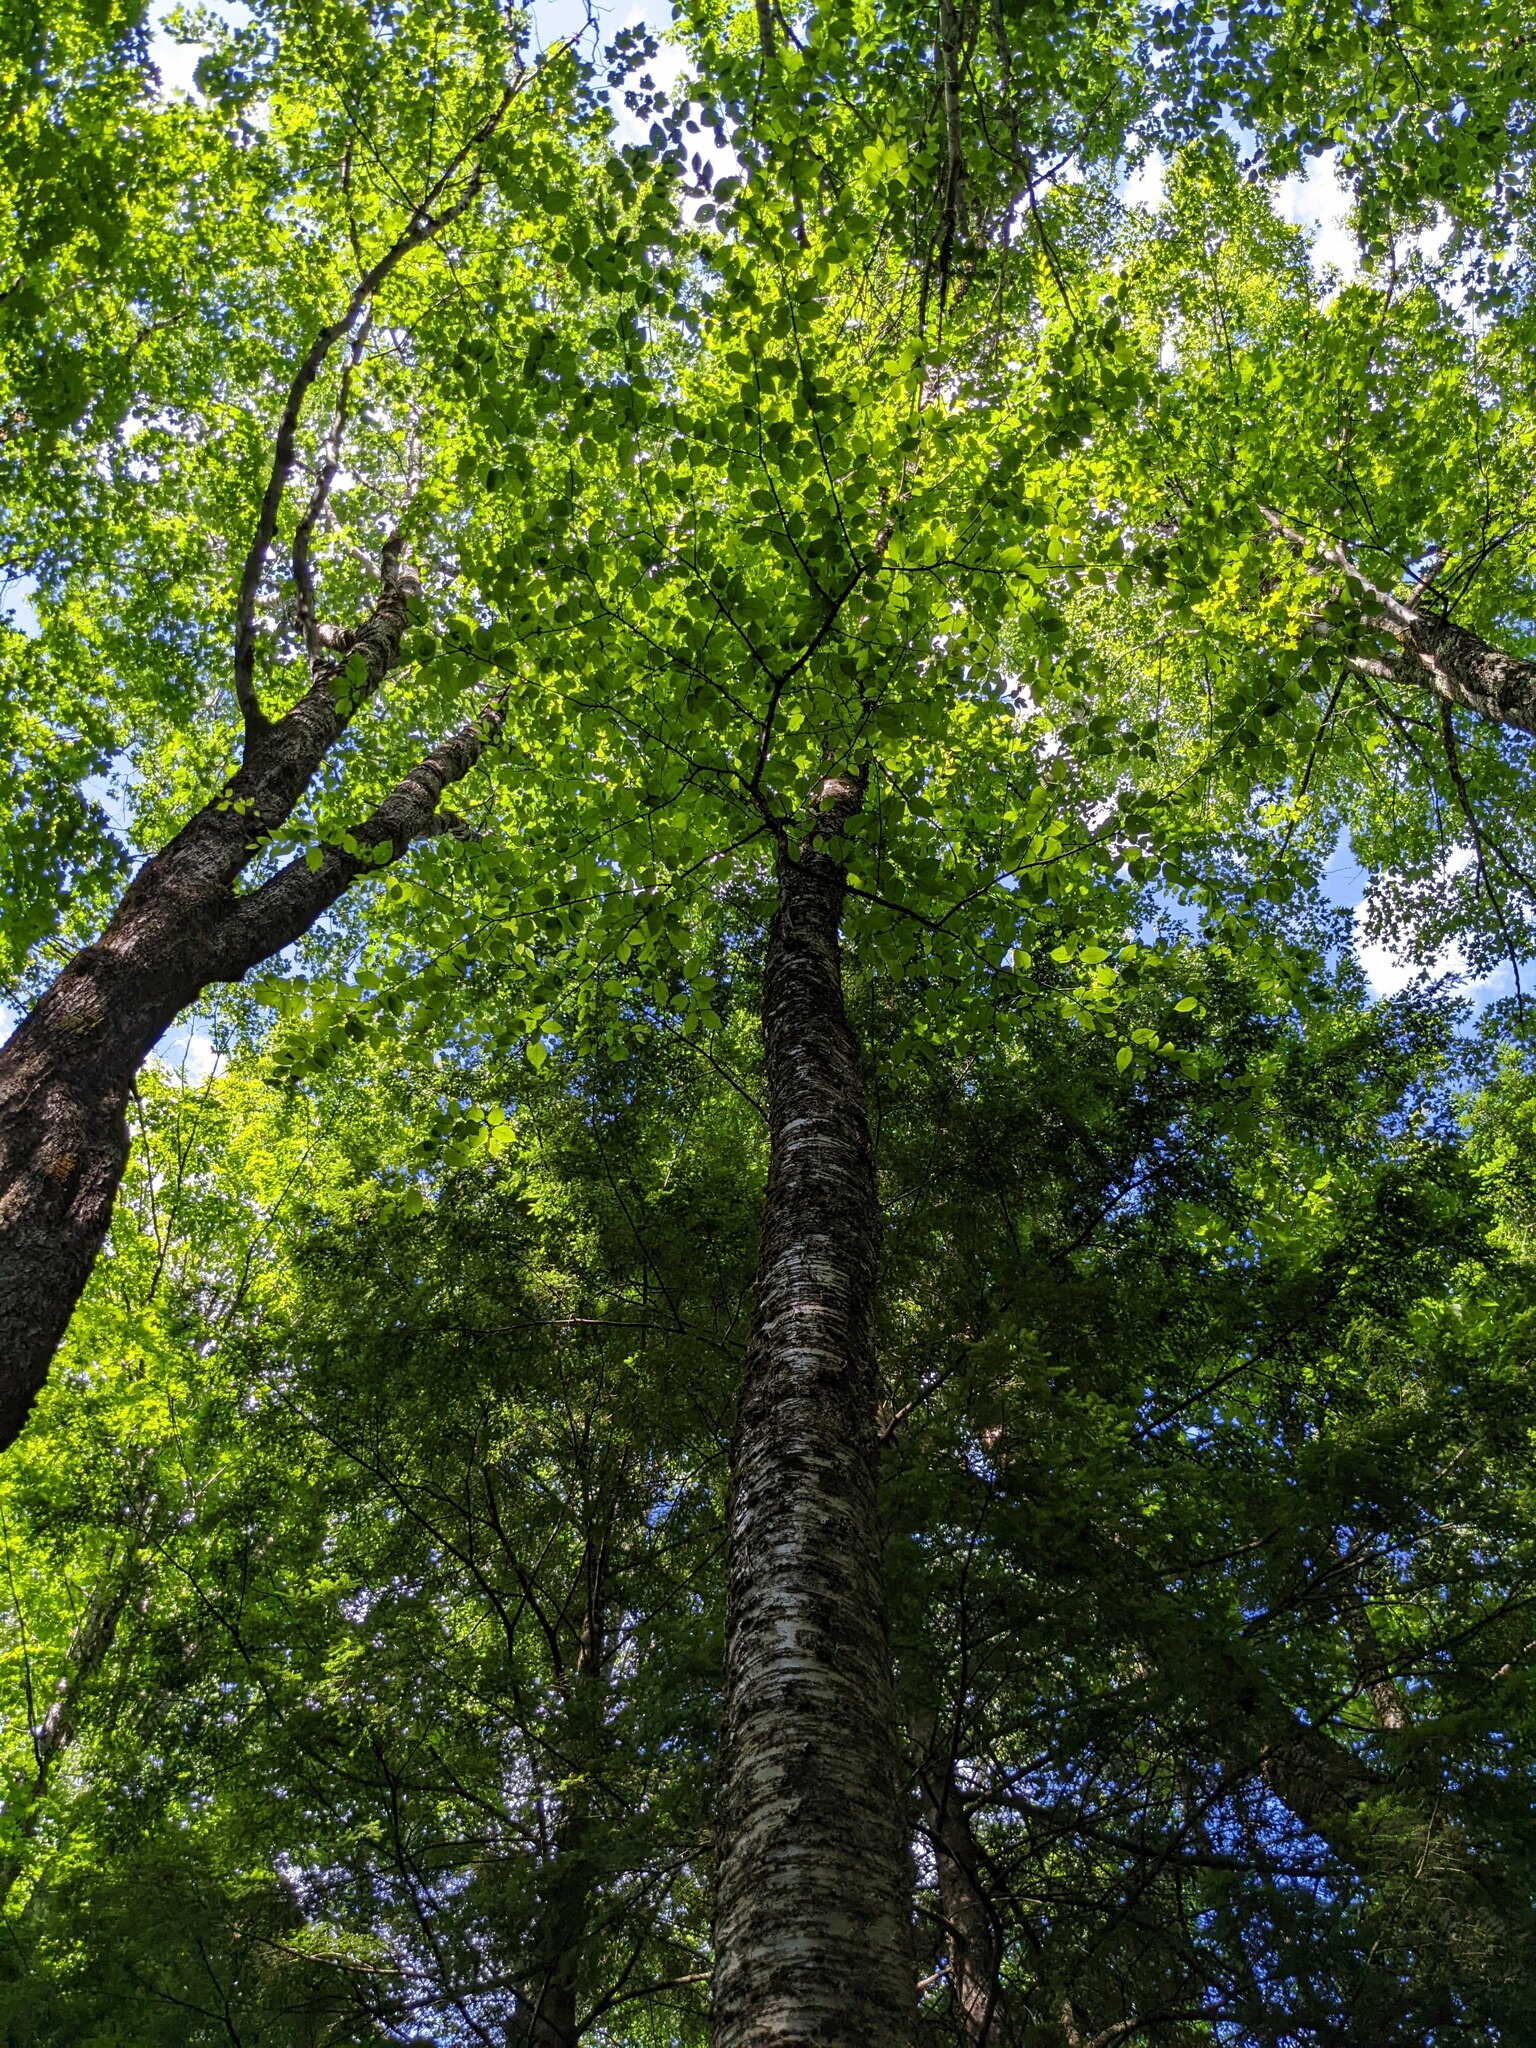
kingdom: Plantae
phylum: Tracheophyta
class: Magnoliopsida
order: Fagales
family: Betulaceae
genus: Betula
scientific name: Betula alleghaniensis
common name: Yellow birch
